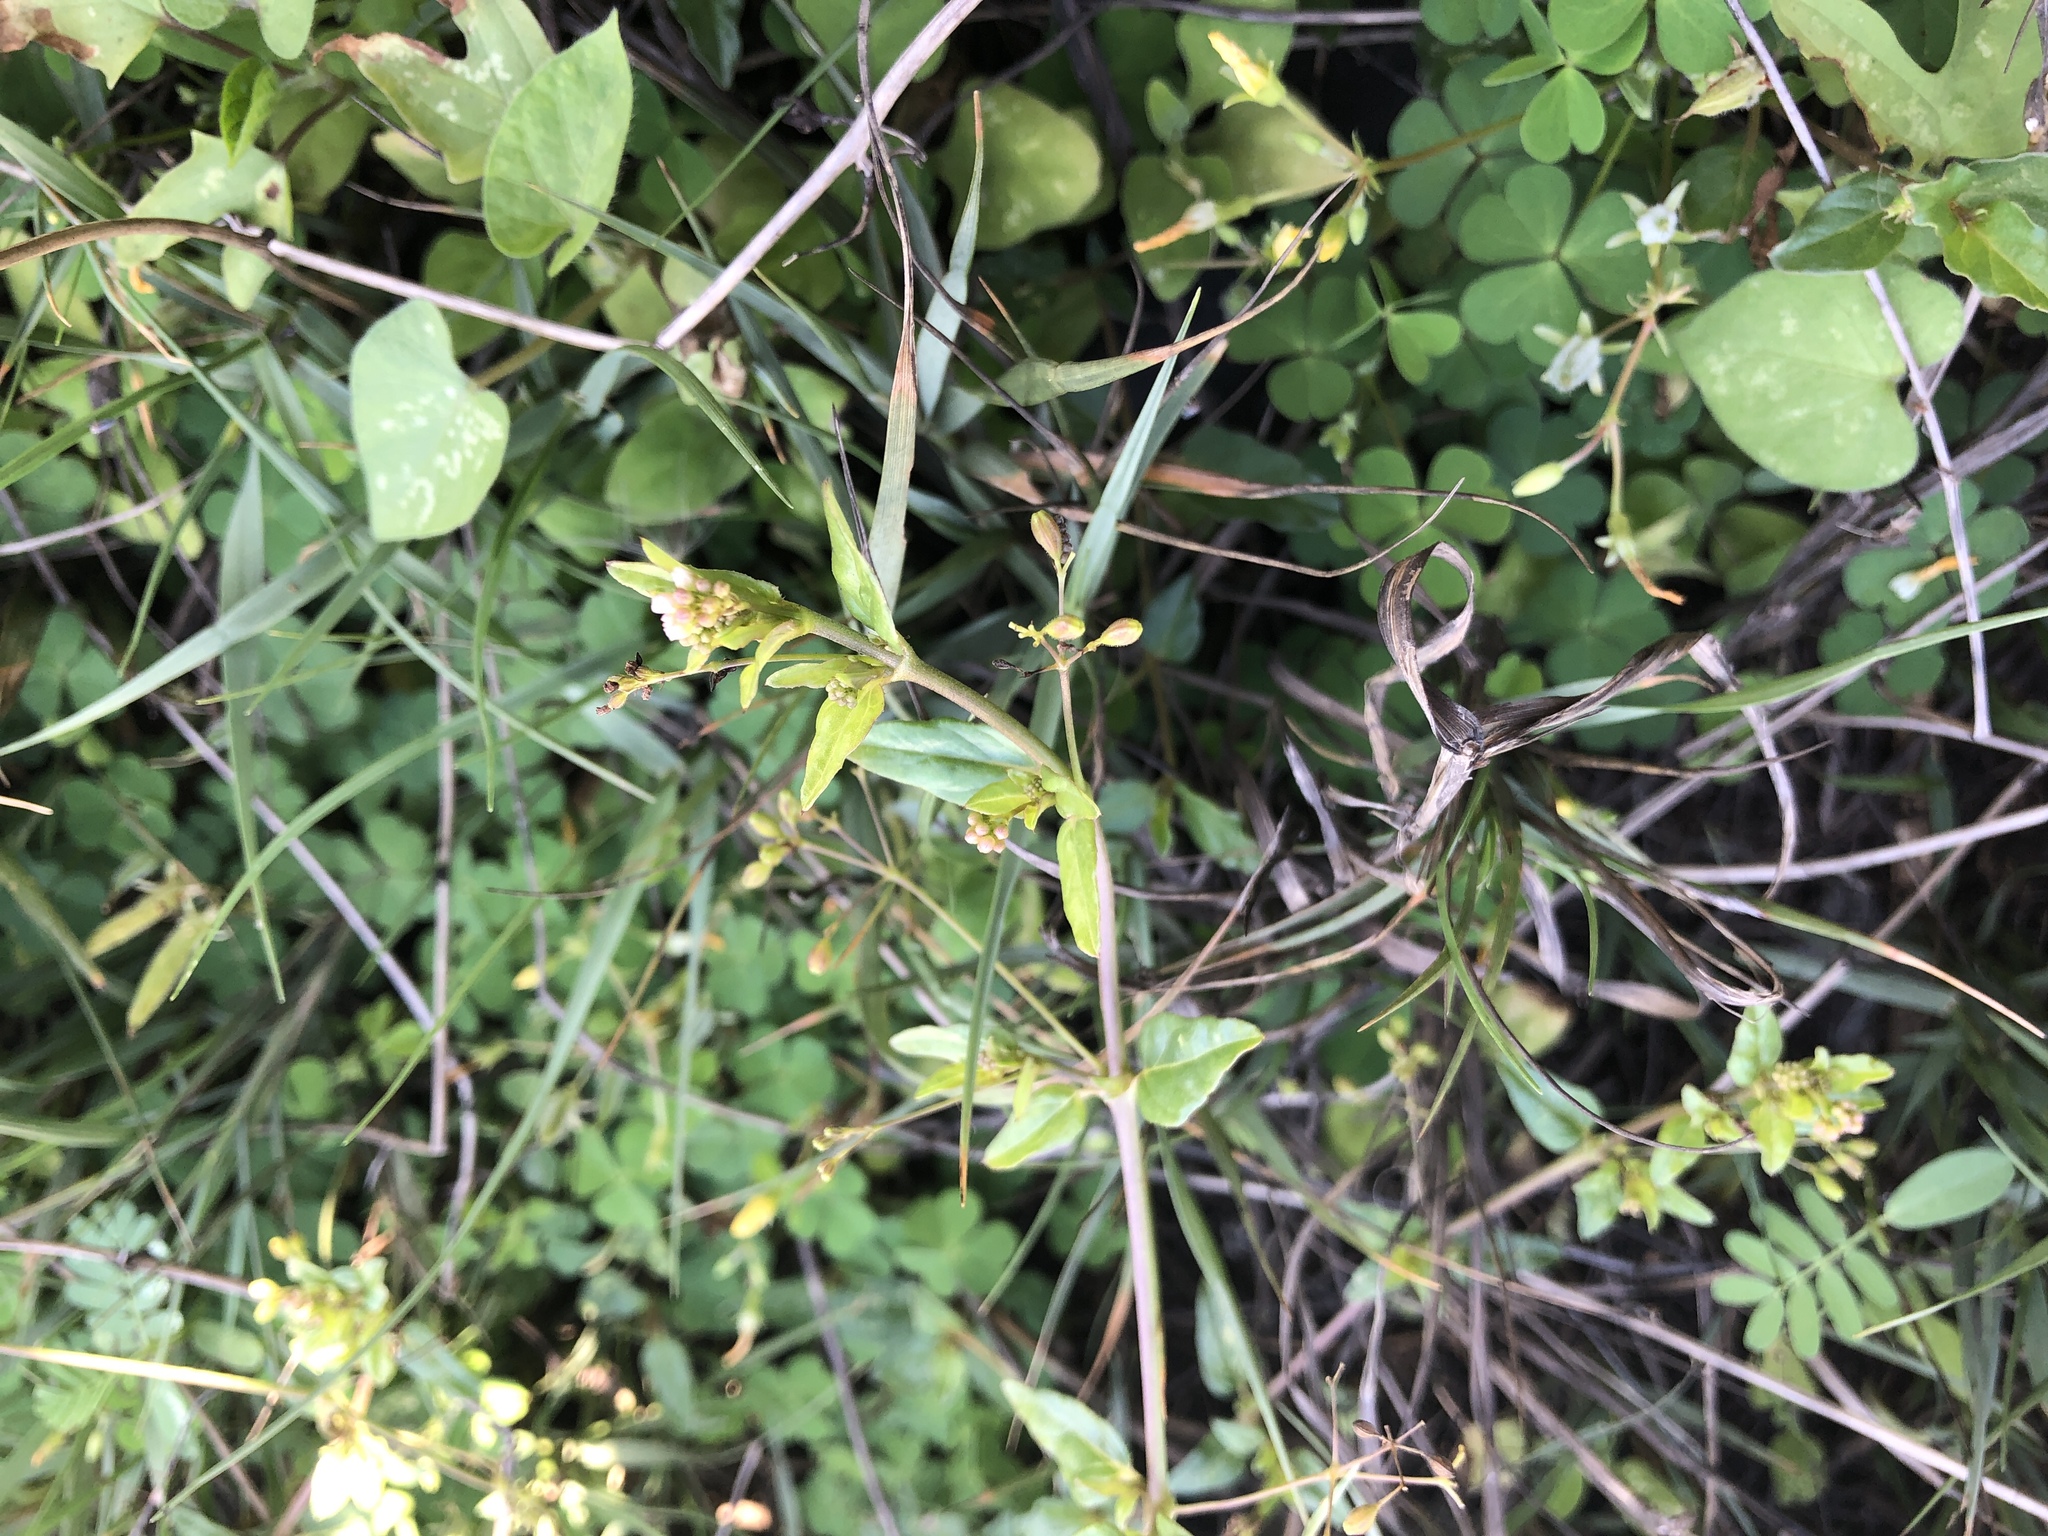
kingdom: Plantae
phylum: Tracheophyta
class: Magnoliopsida
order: Caryophyllales
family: Nyctaginaceae
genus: Boerhavia
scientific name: Boerhavia glabrata
